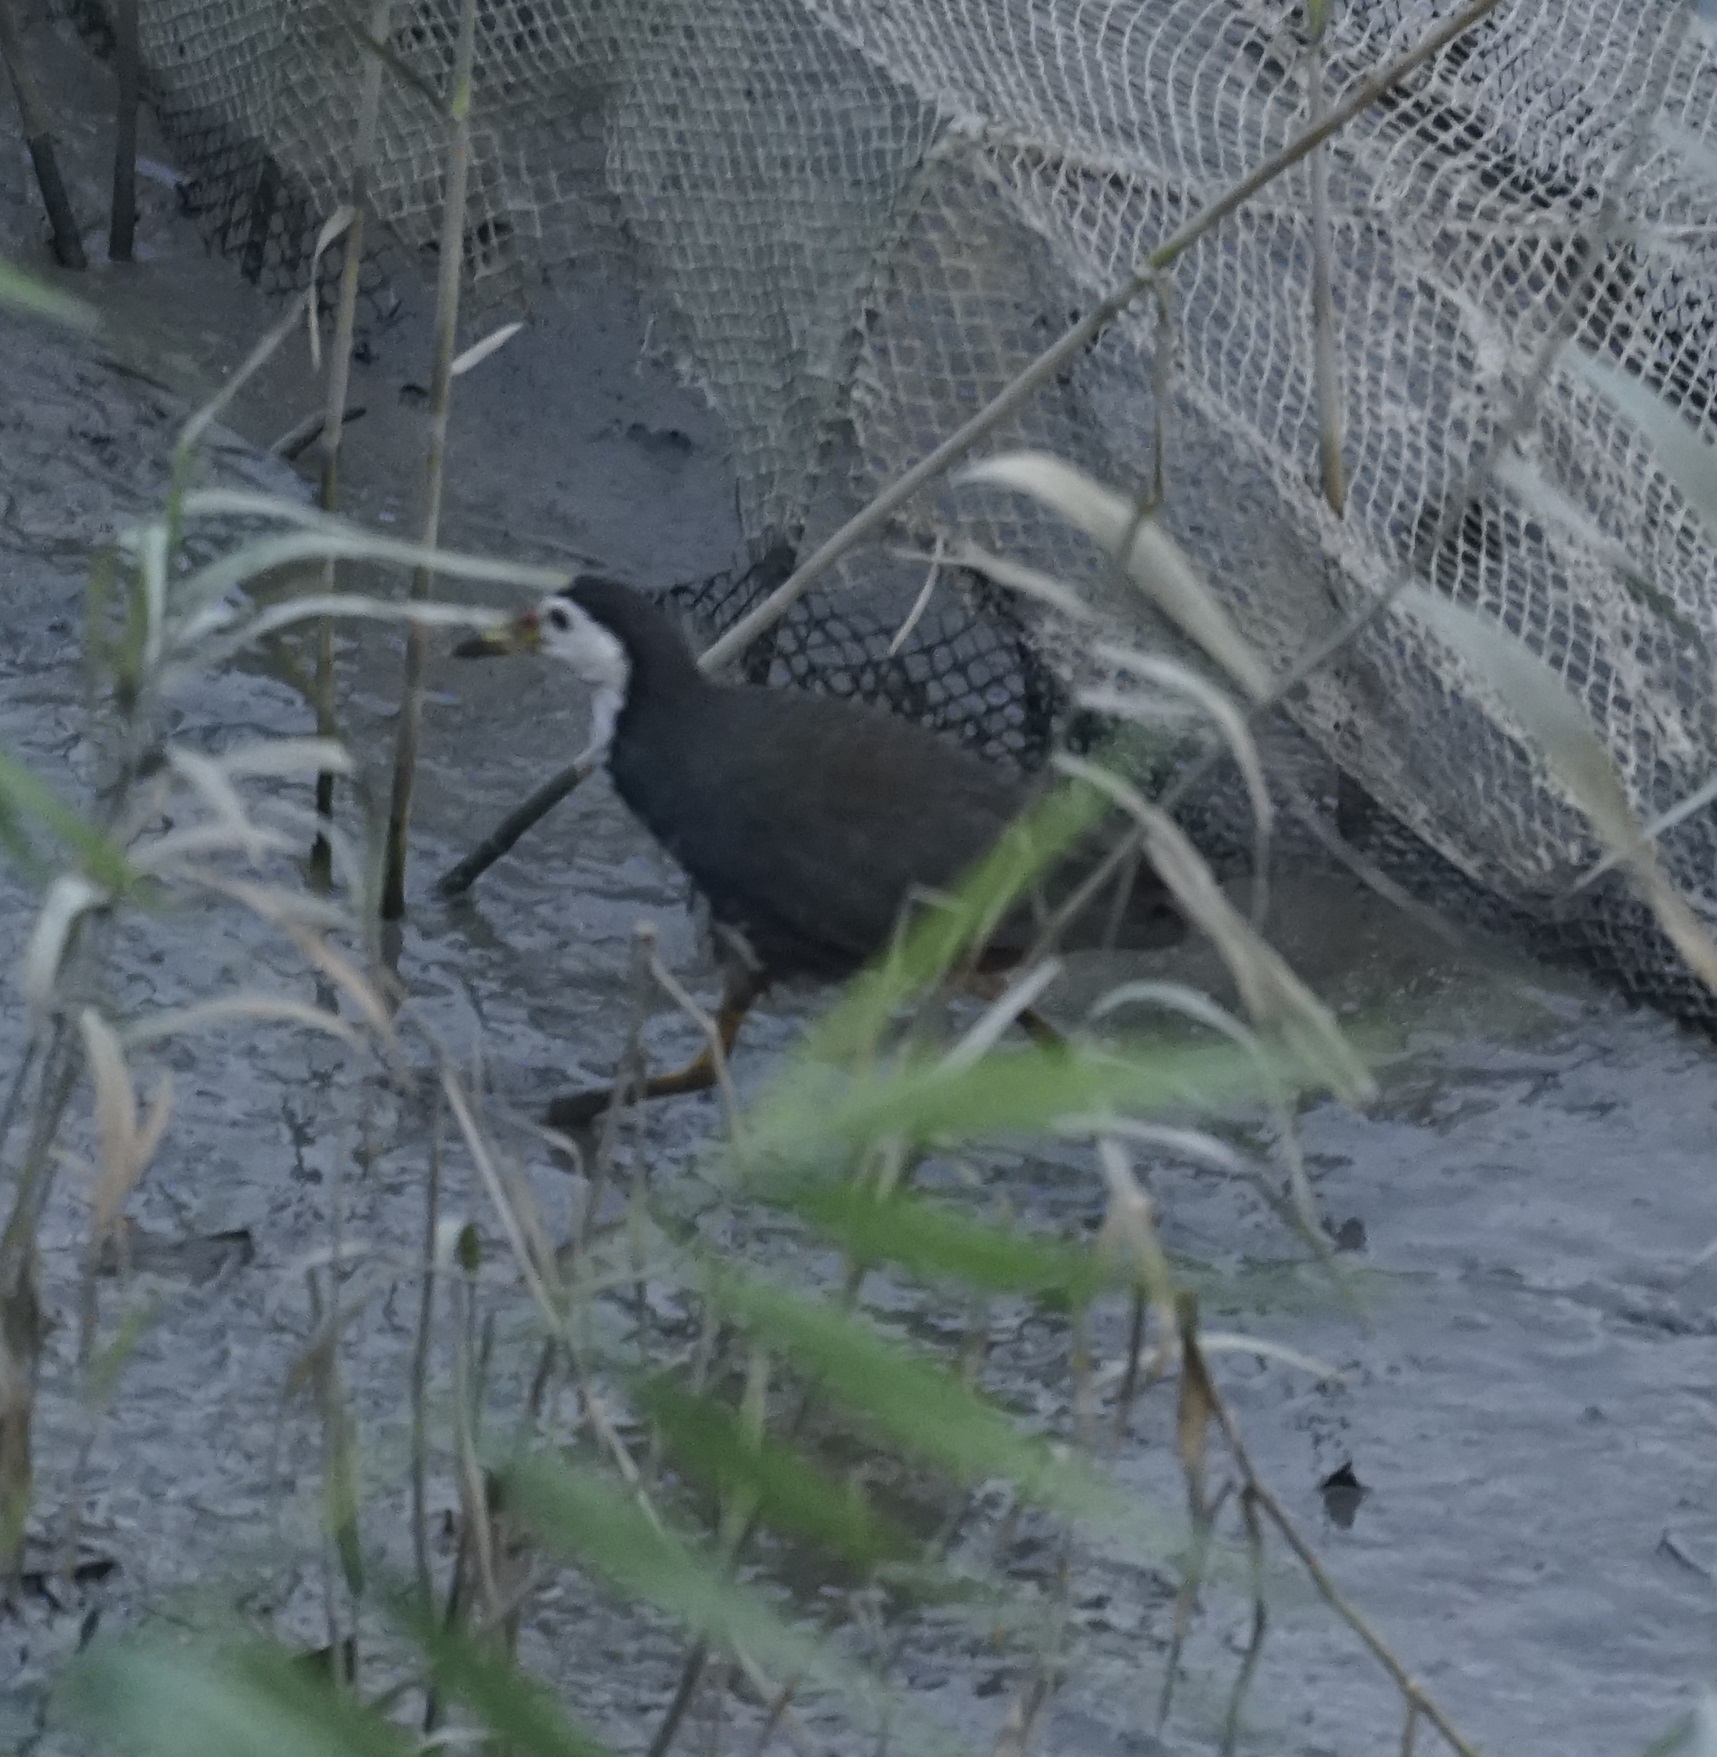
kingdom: Animalia
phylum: Chordata
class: Aves
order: Gruiformes
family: Rallidae
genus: Amaurornis
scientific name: Amaurornis phoenicurus
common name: White-breasted waterhen
